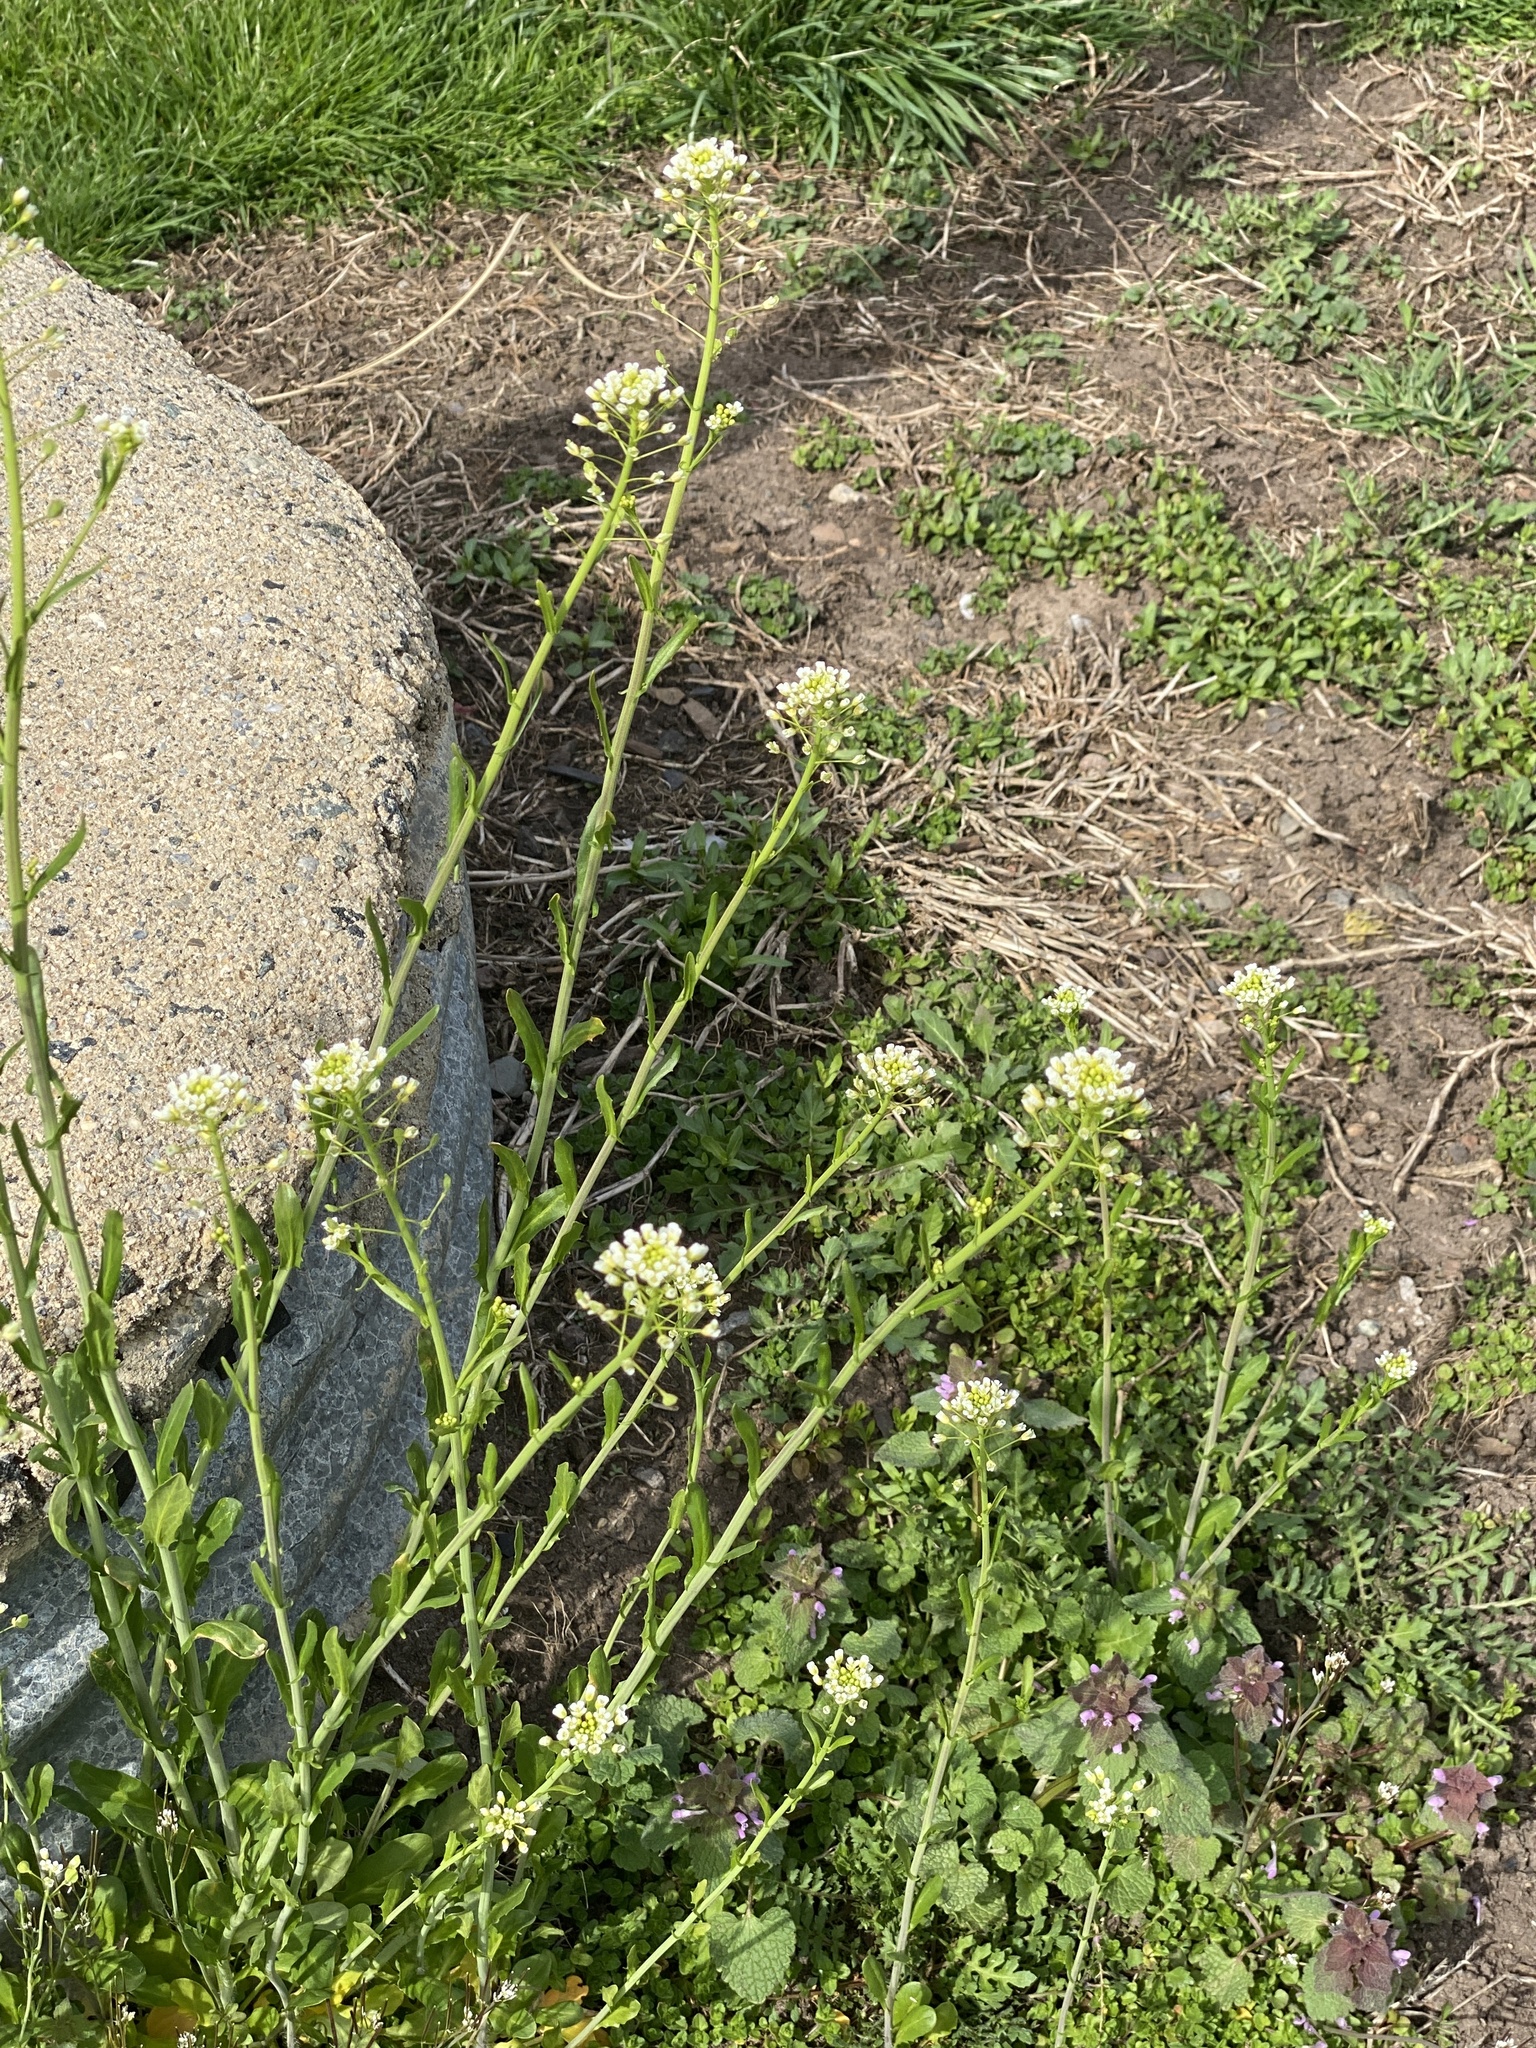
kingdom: Plantae
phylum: Tracheophyta
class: Magnoliopsida
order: Brassicales
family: Brassicaceae
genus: Mummenhoffia
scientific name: Mummenhoffia alliacea
